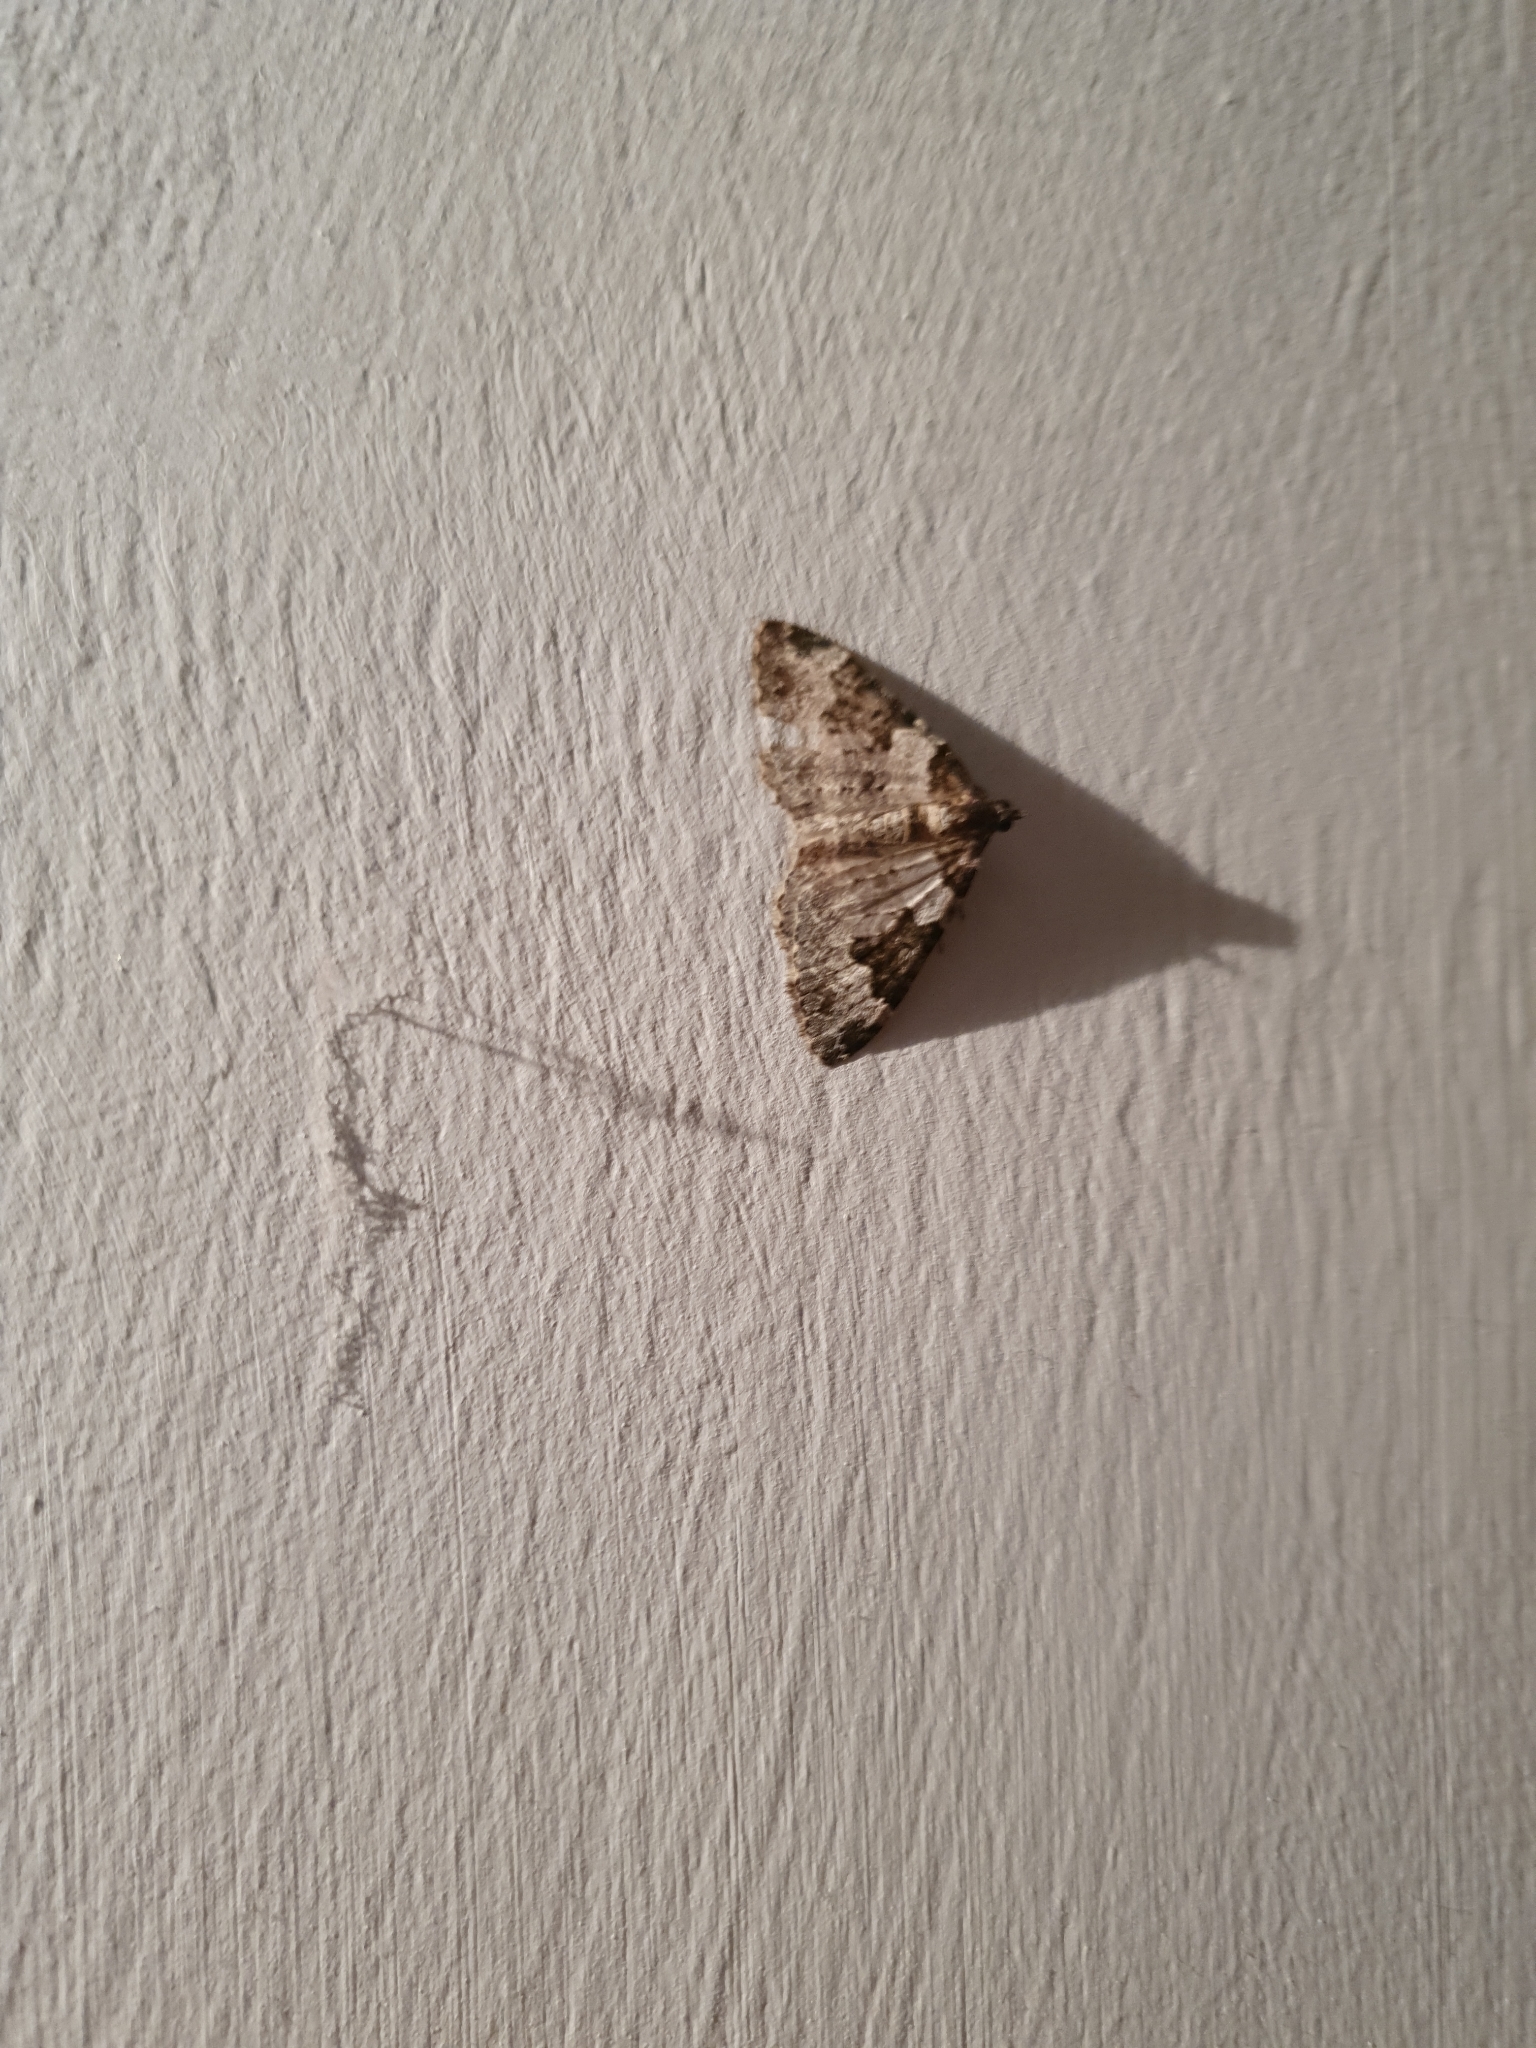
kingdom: Animalia
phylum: Arthropoda
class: Insecta
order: Lepidoptera
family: Geometridae
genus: Xanthorhoe
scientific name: Xanthorhoe fluctuata
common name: Garden carpet
